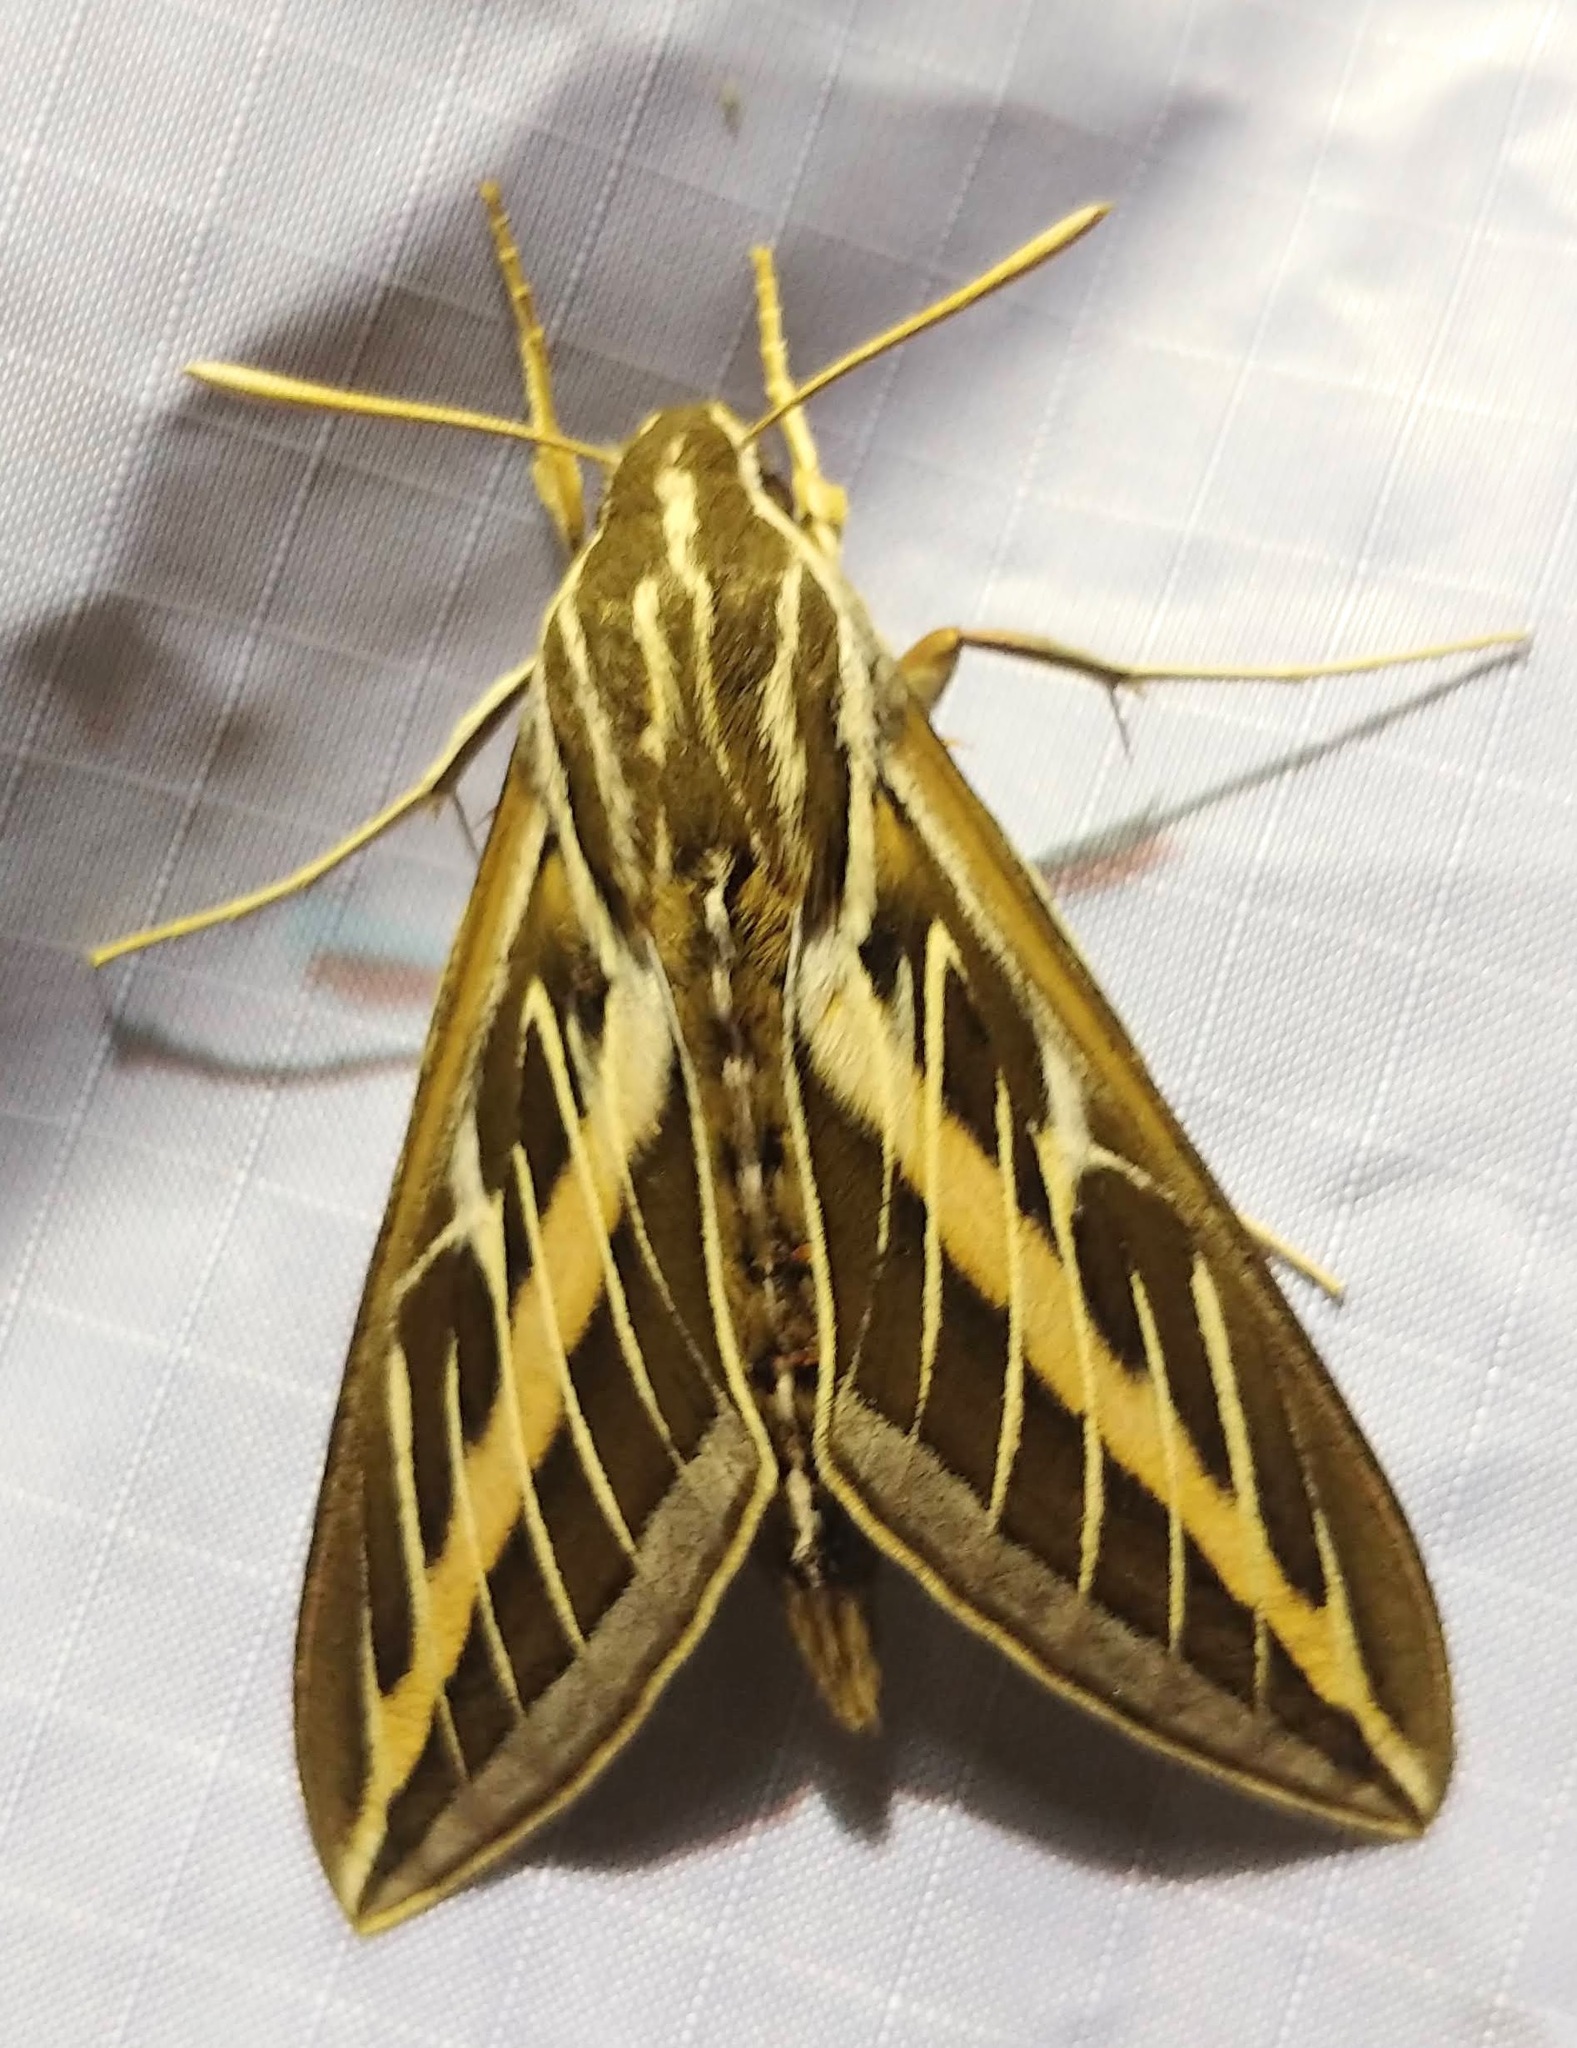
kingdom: Animalia
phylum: Arthropoda
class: Insecta
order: Lepidoptera
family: Sphingidae
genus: Hyles
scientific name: Hyles lineata
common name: White-lined sphinx
